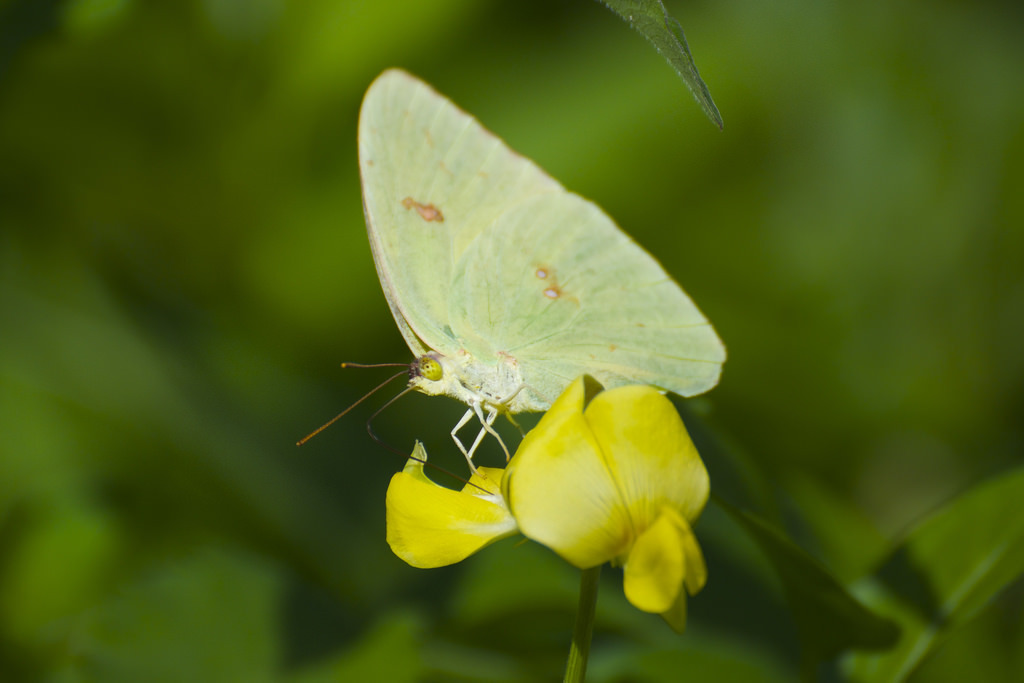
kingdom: Animalia
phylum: Arthropoda
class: Insecta
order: Lepidoptera
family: Pieridae
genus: Phoebis
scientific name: Phoebis sennae
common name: Cloudless sulphur
